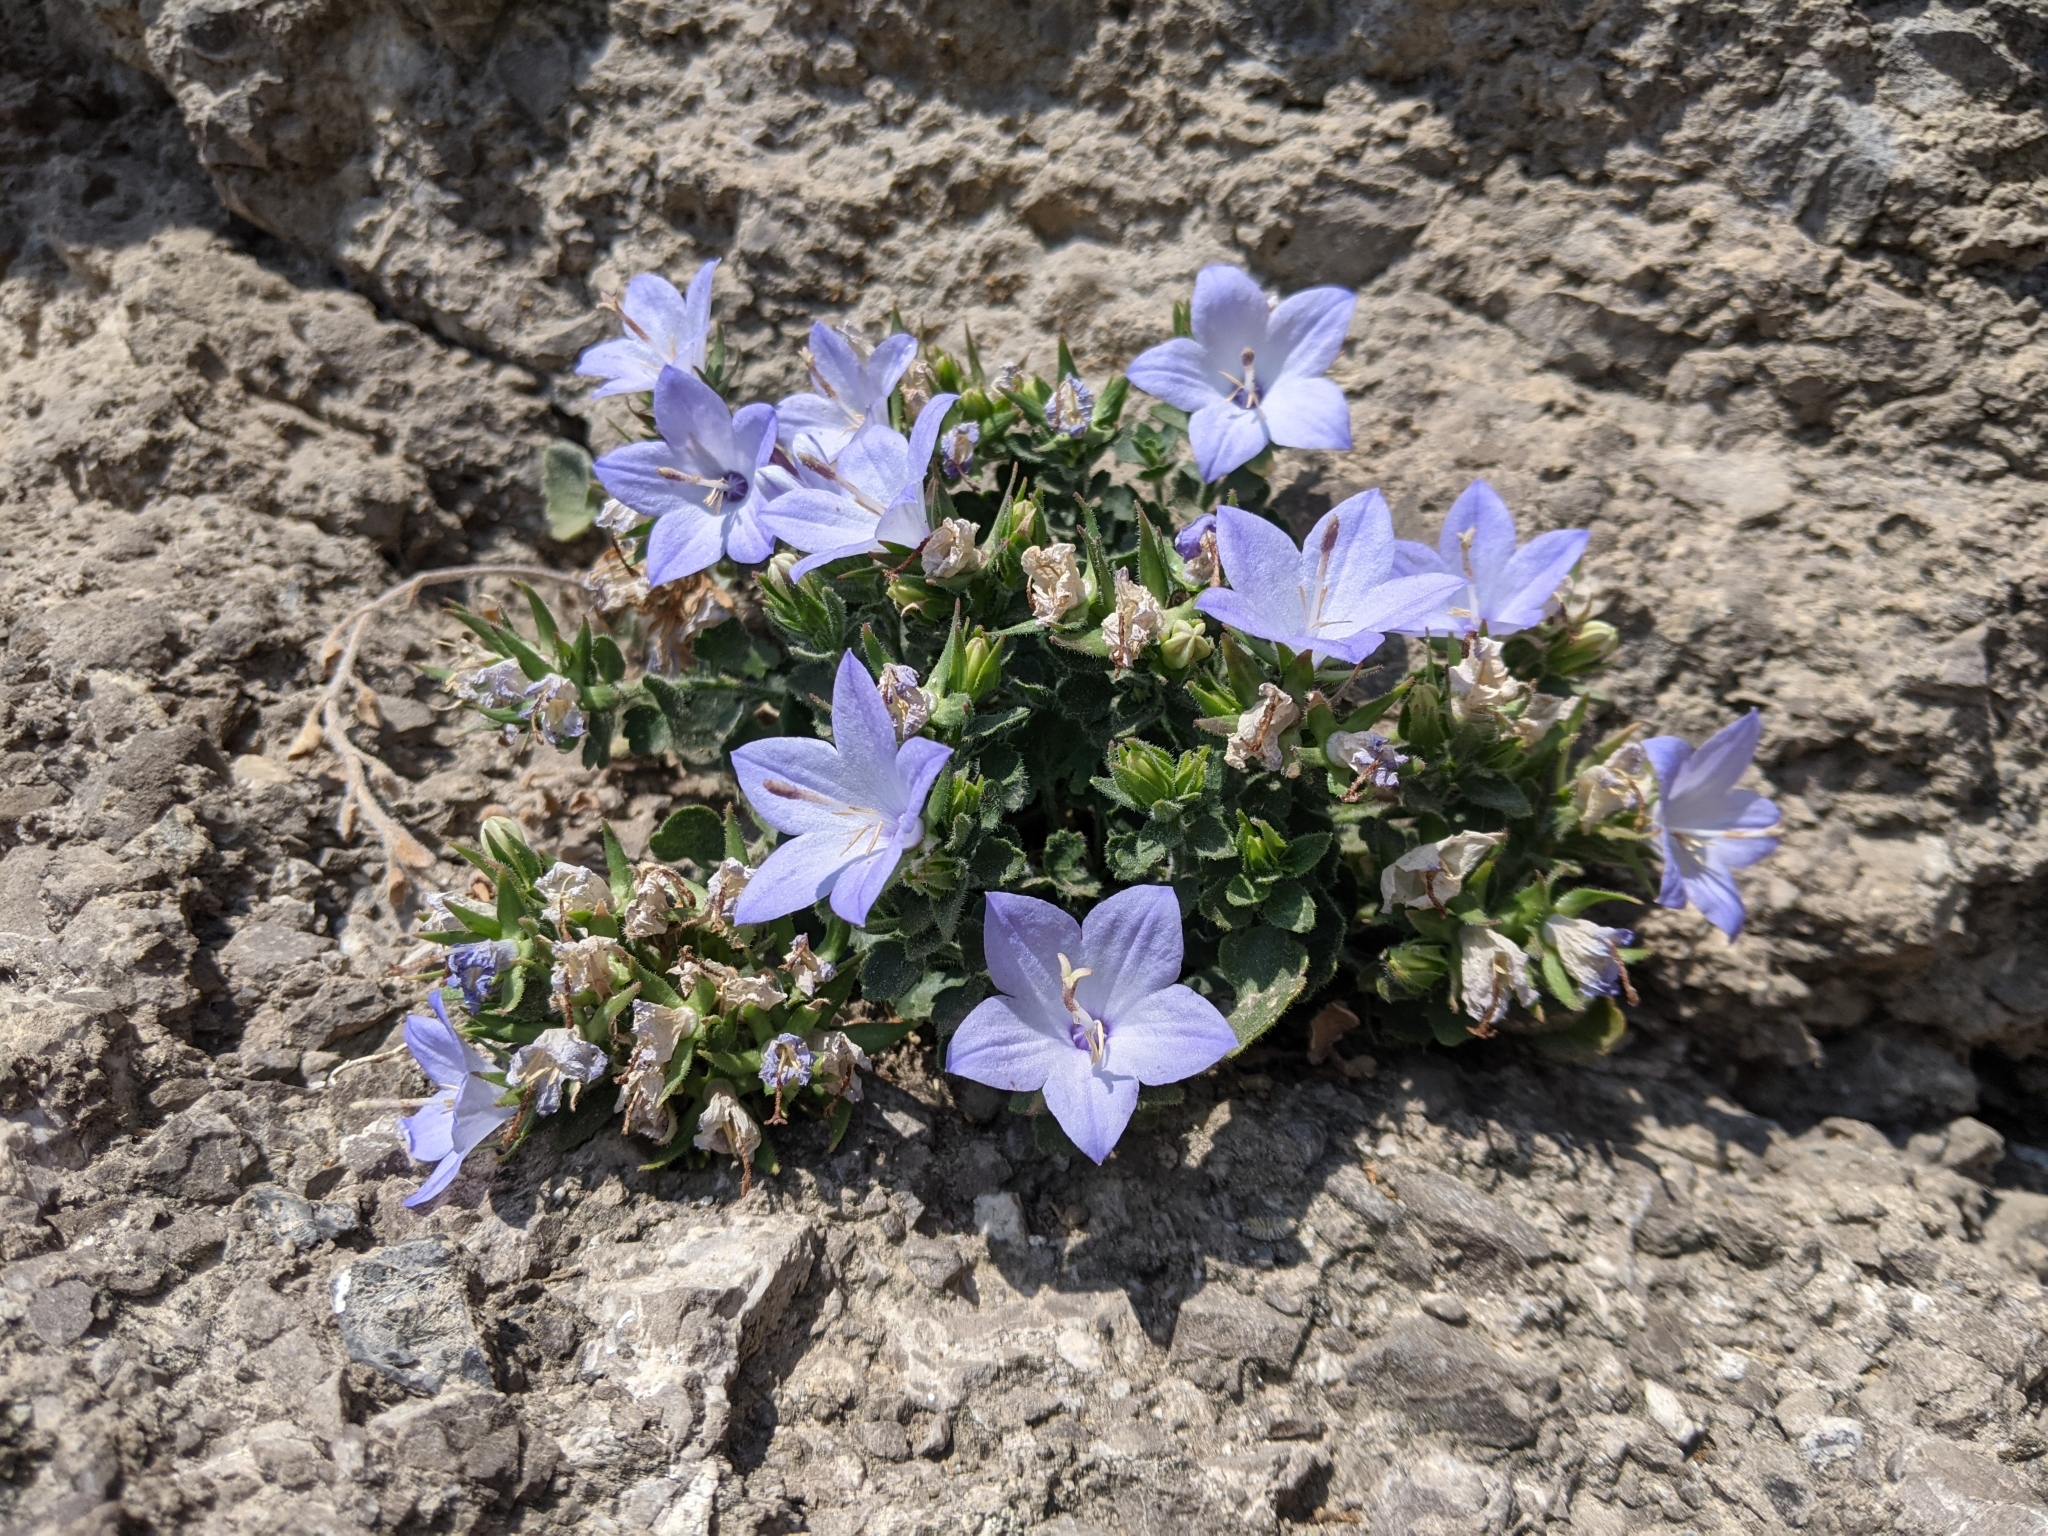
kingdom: Plantae
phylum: Tracheophyta
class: Magnoliopsida
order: Asterales
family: Campanulaceae
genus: Campanula
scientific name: Campanula fragilis
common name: Italian bellflower
